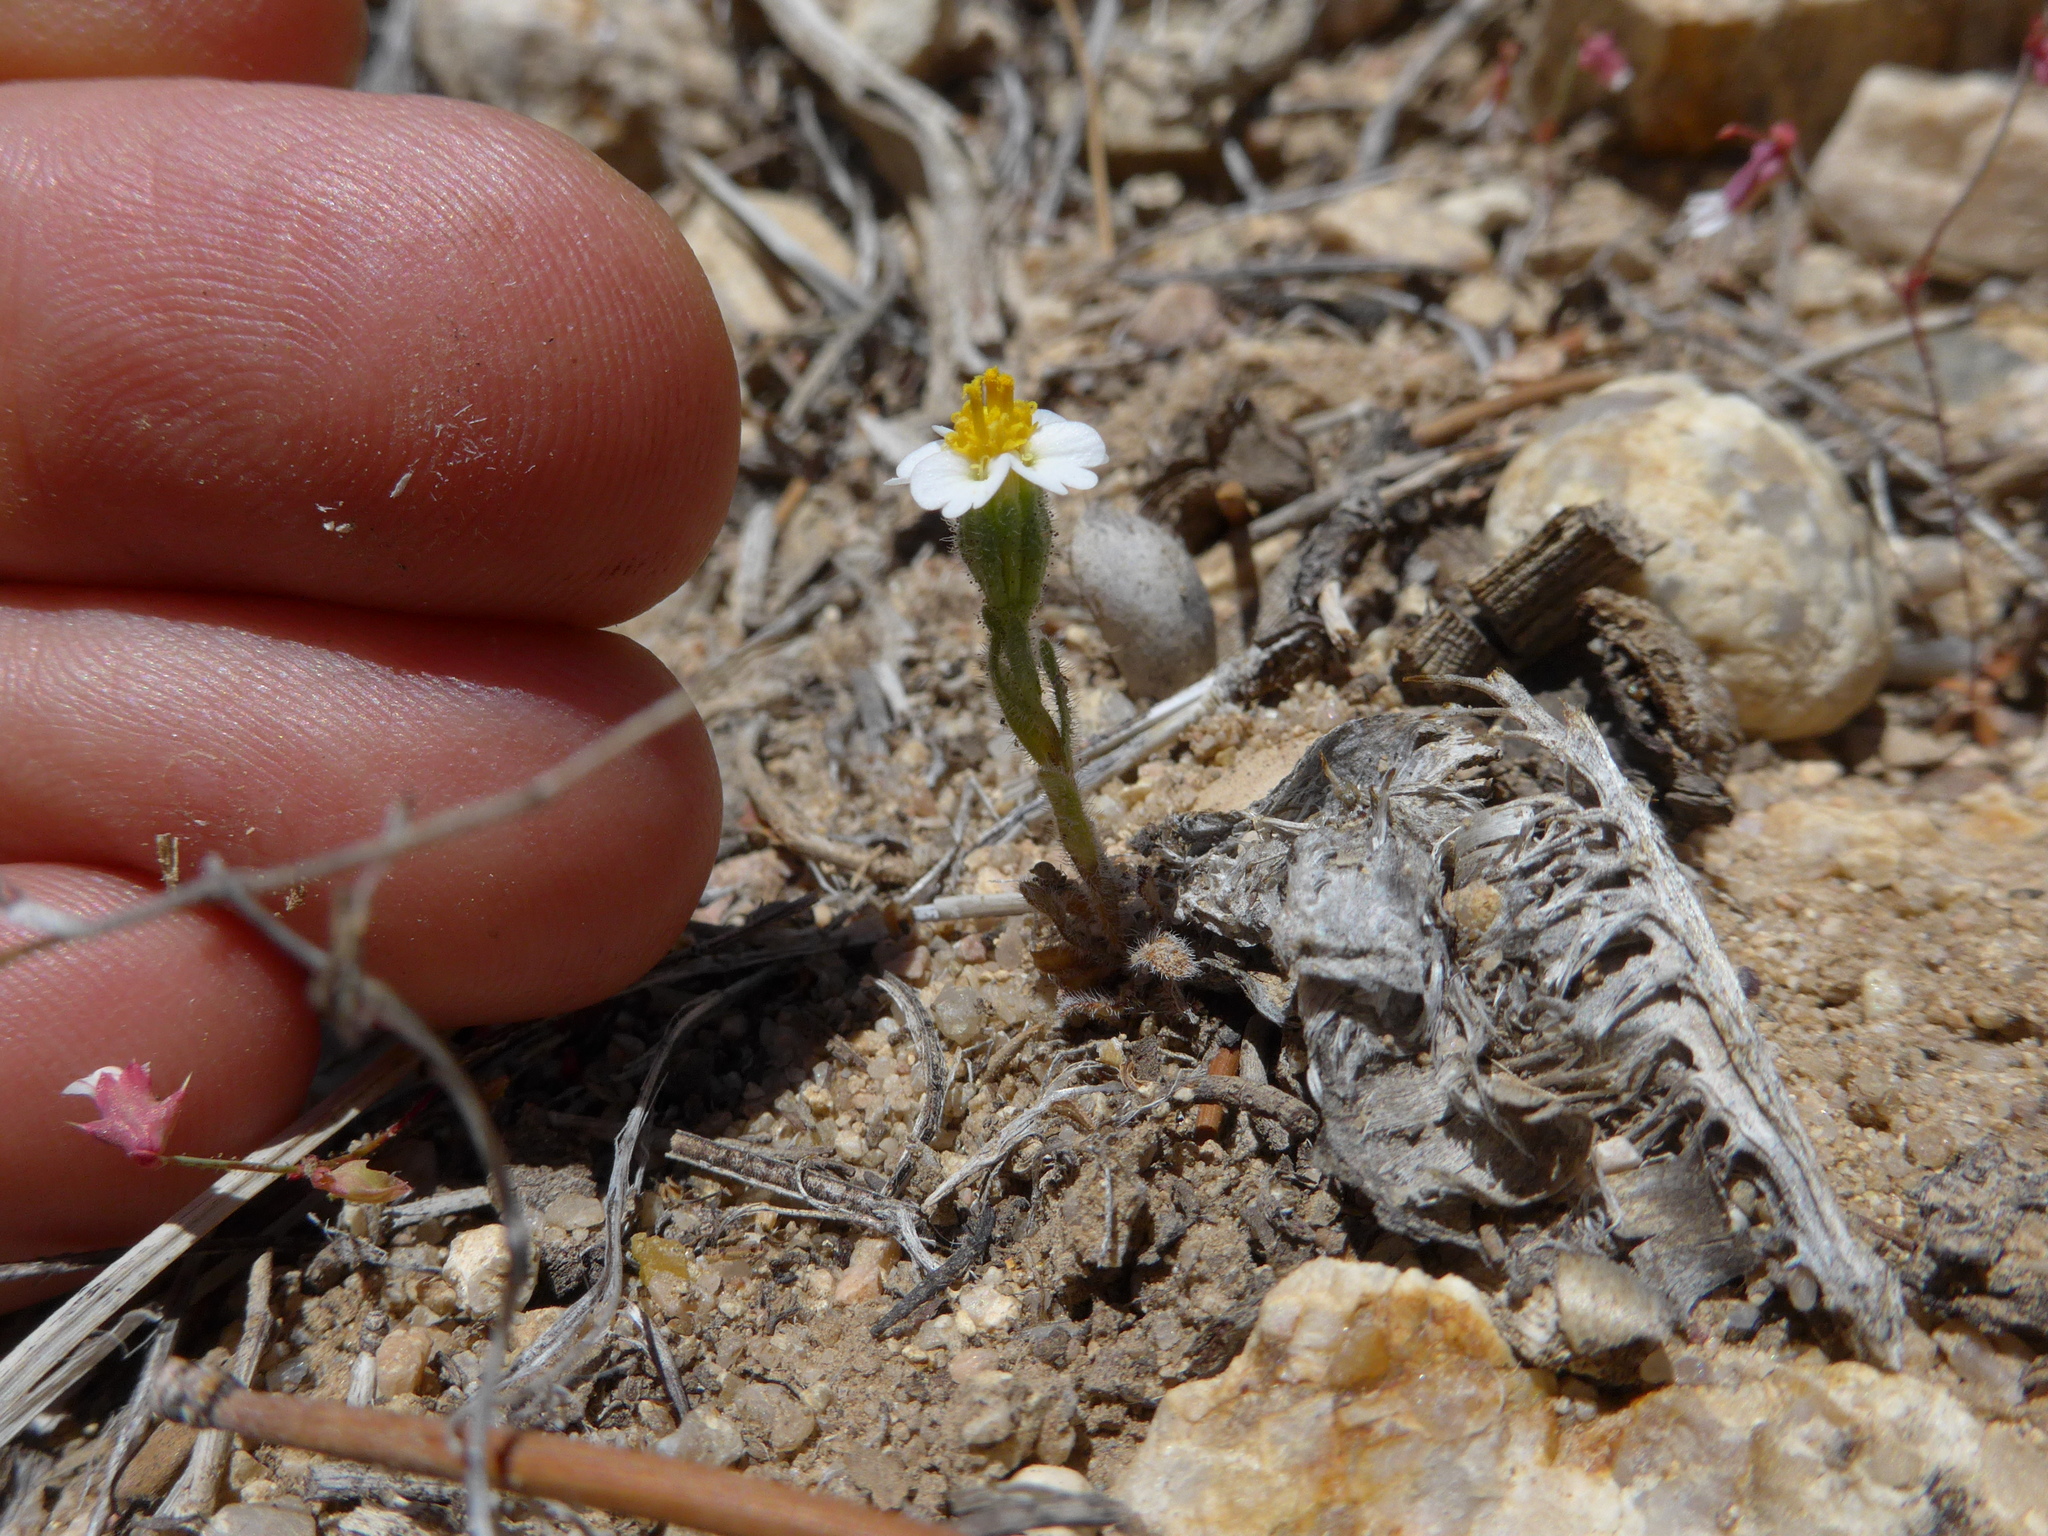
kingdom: Plantae
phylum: Tracheophyta
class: Magnoliopsida
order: Asterales
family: Asteraceae
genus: Layia
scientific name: Layia glandulosa
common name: White layia
